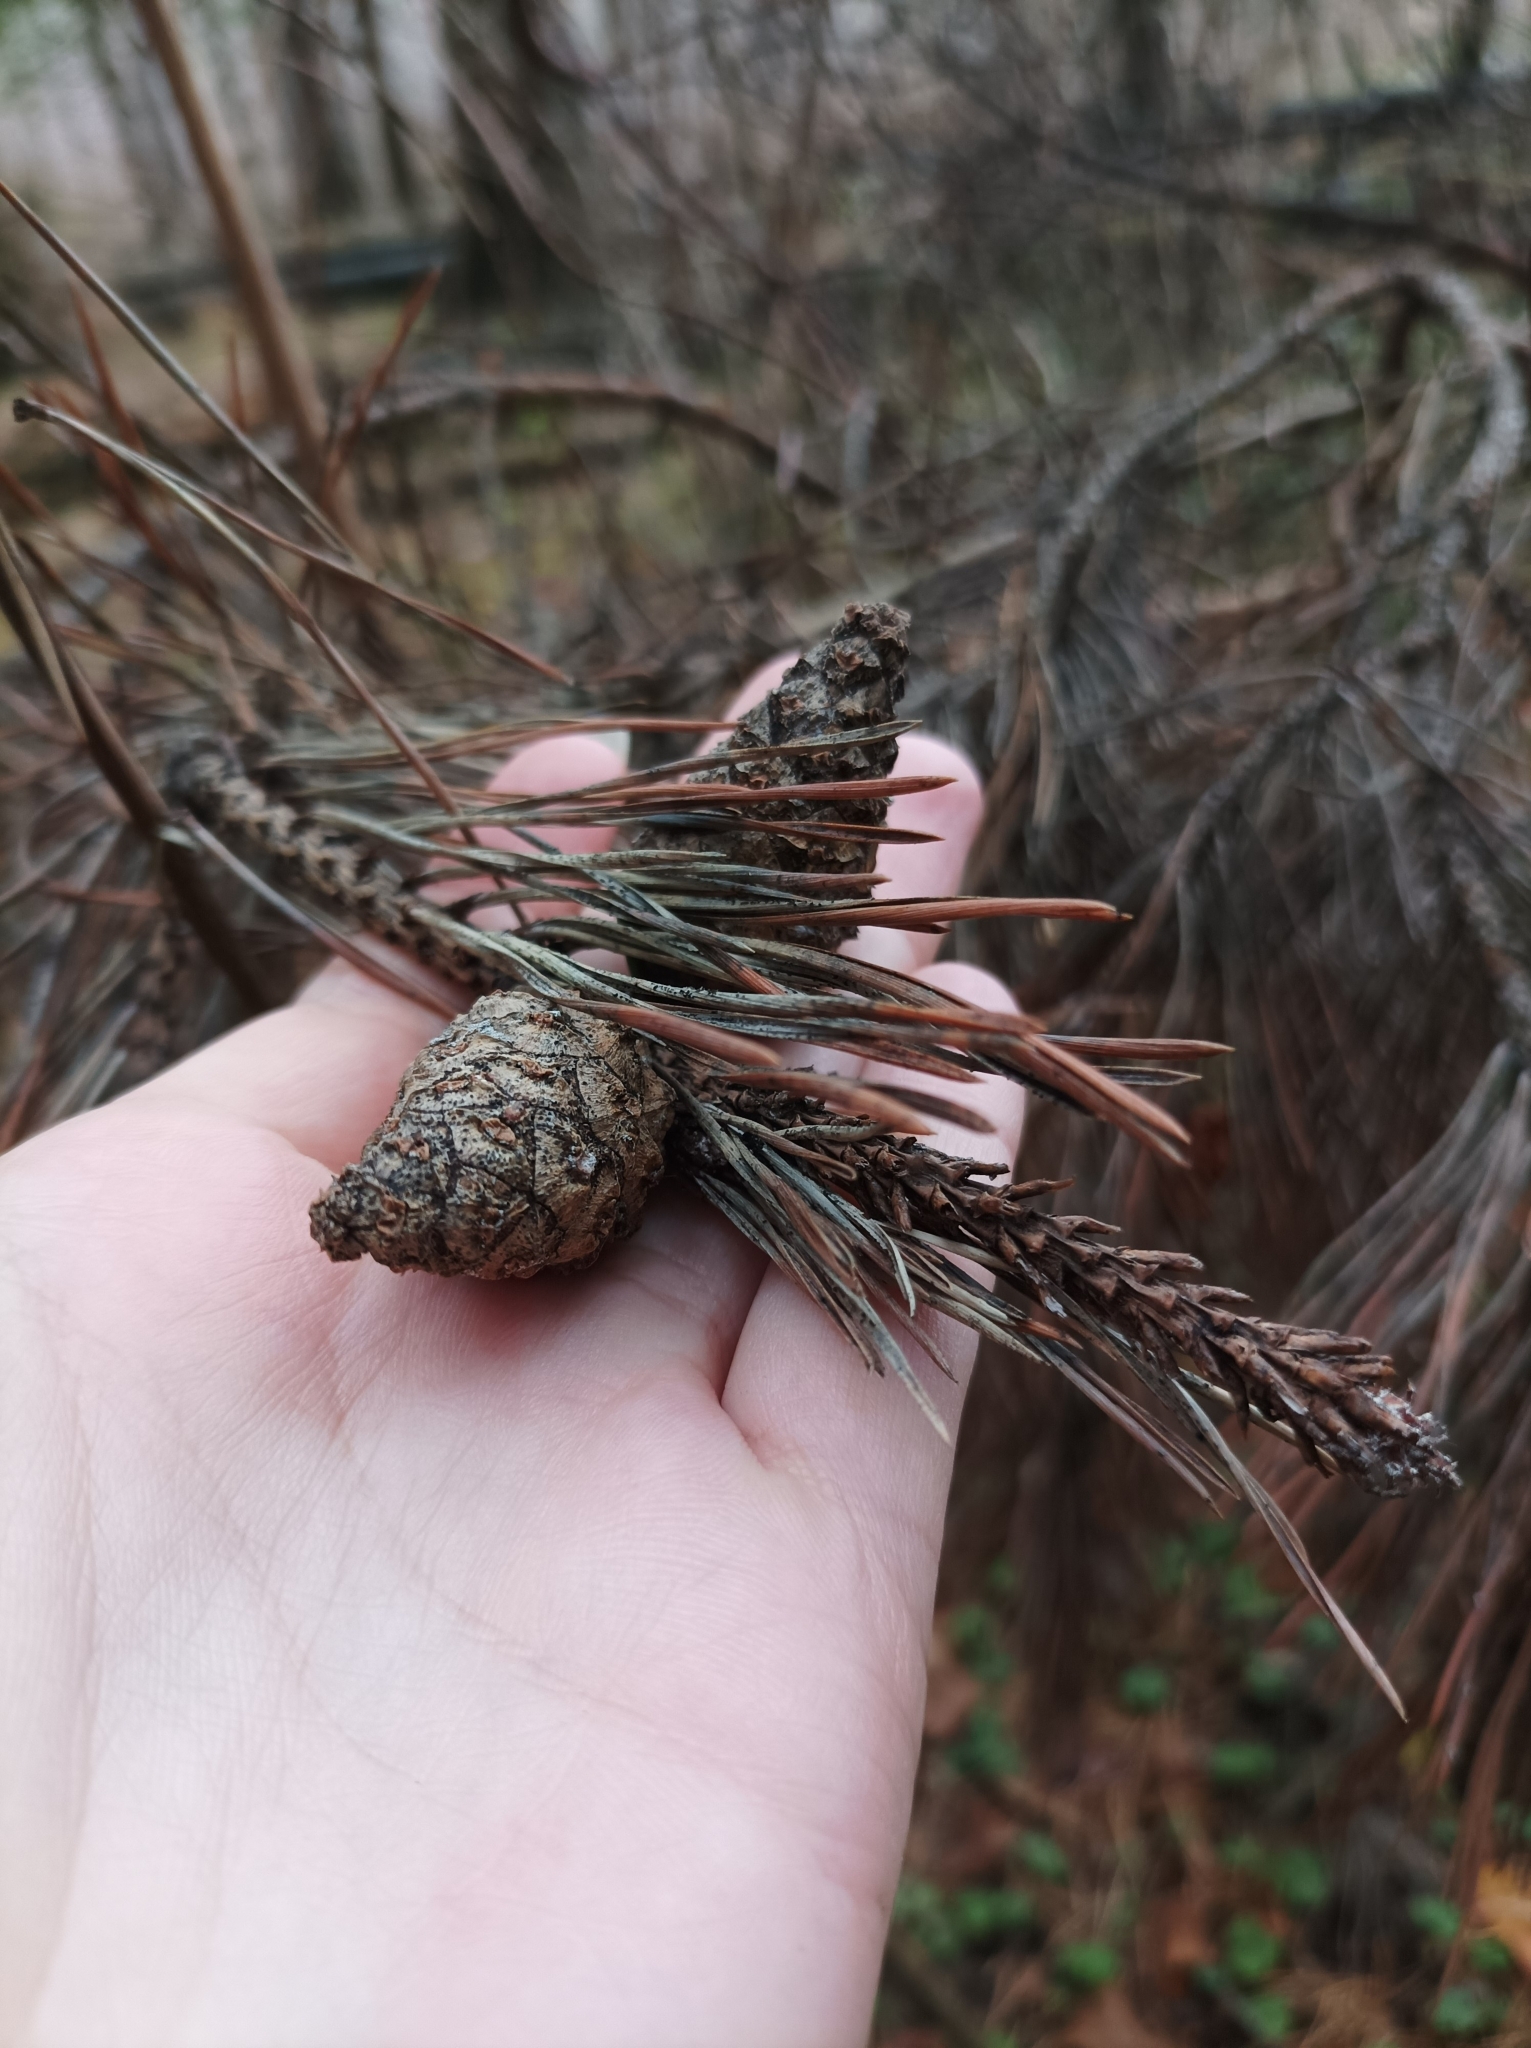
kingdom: Plantae
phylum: Tracheophyta
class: Pinopsida
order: Pinales
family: Pinaceae
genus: Pinus
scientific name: Pinus sylvestris
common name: Scots pine
